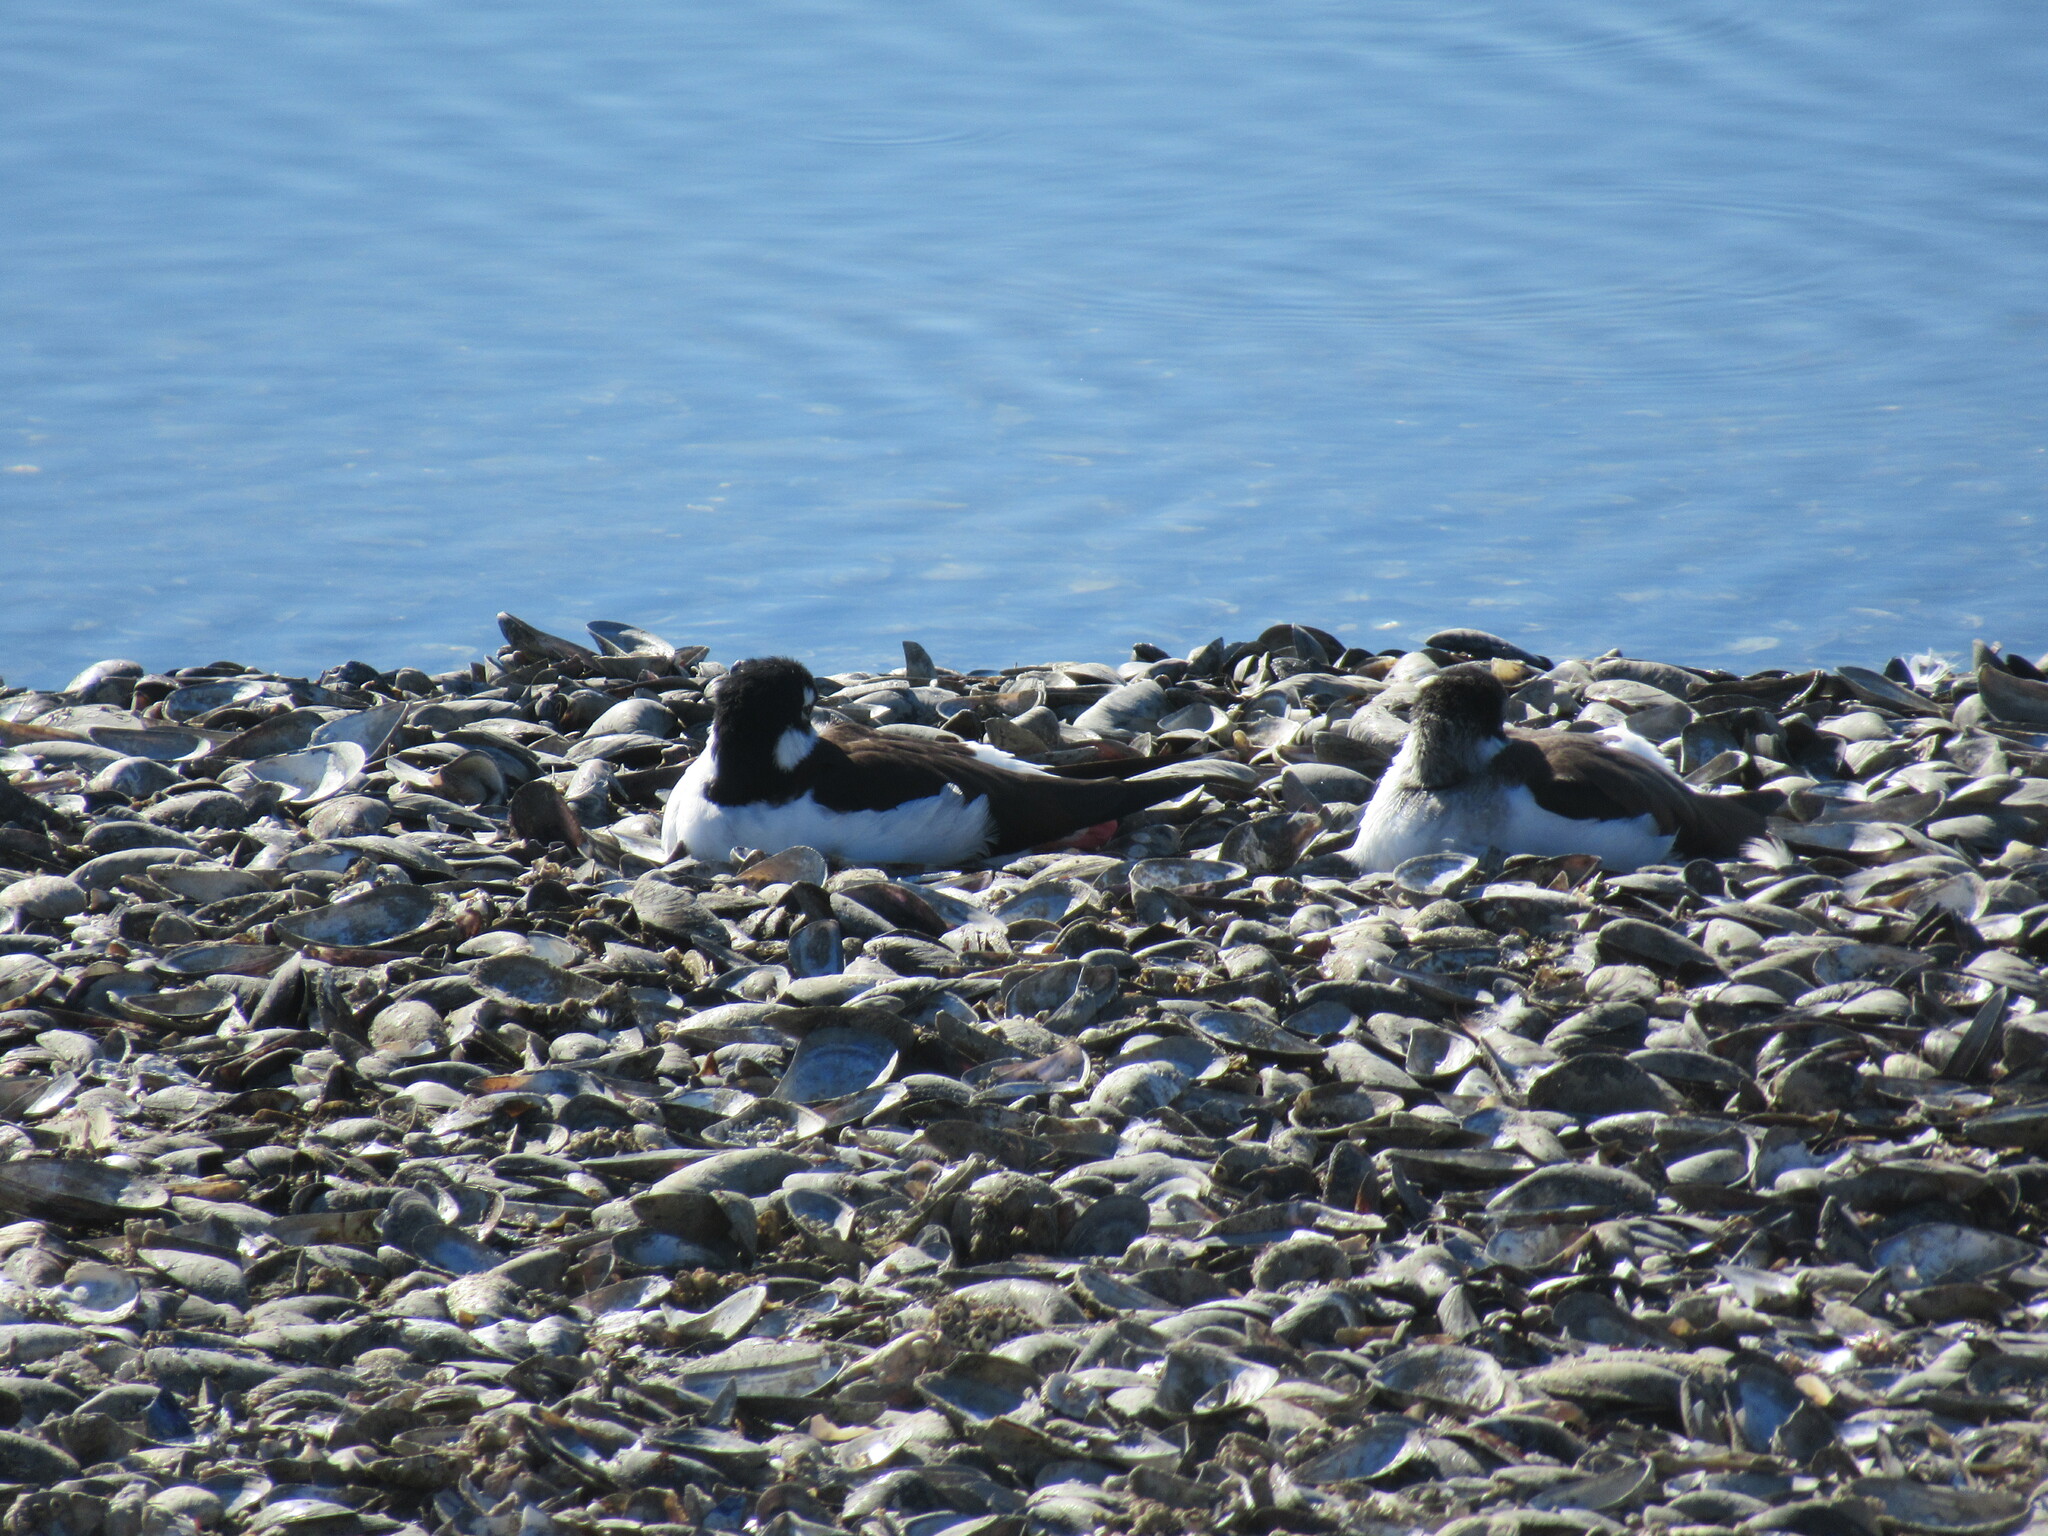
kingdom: Animalia
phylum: Chordata
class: Aves
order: Charadriiformes
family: Recurvirostridae
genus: Himantopus
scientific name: Himantopus mexicanus
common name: Black-necked stilt
